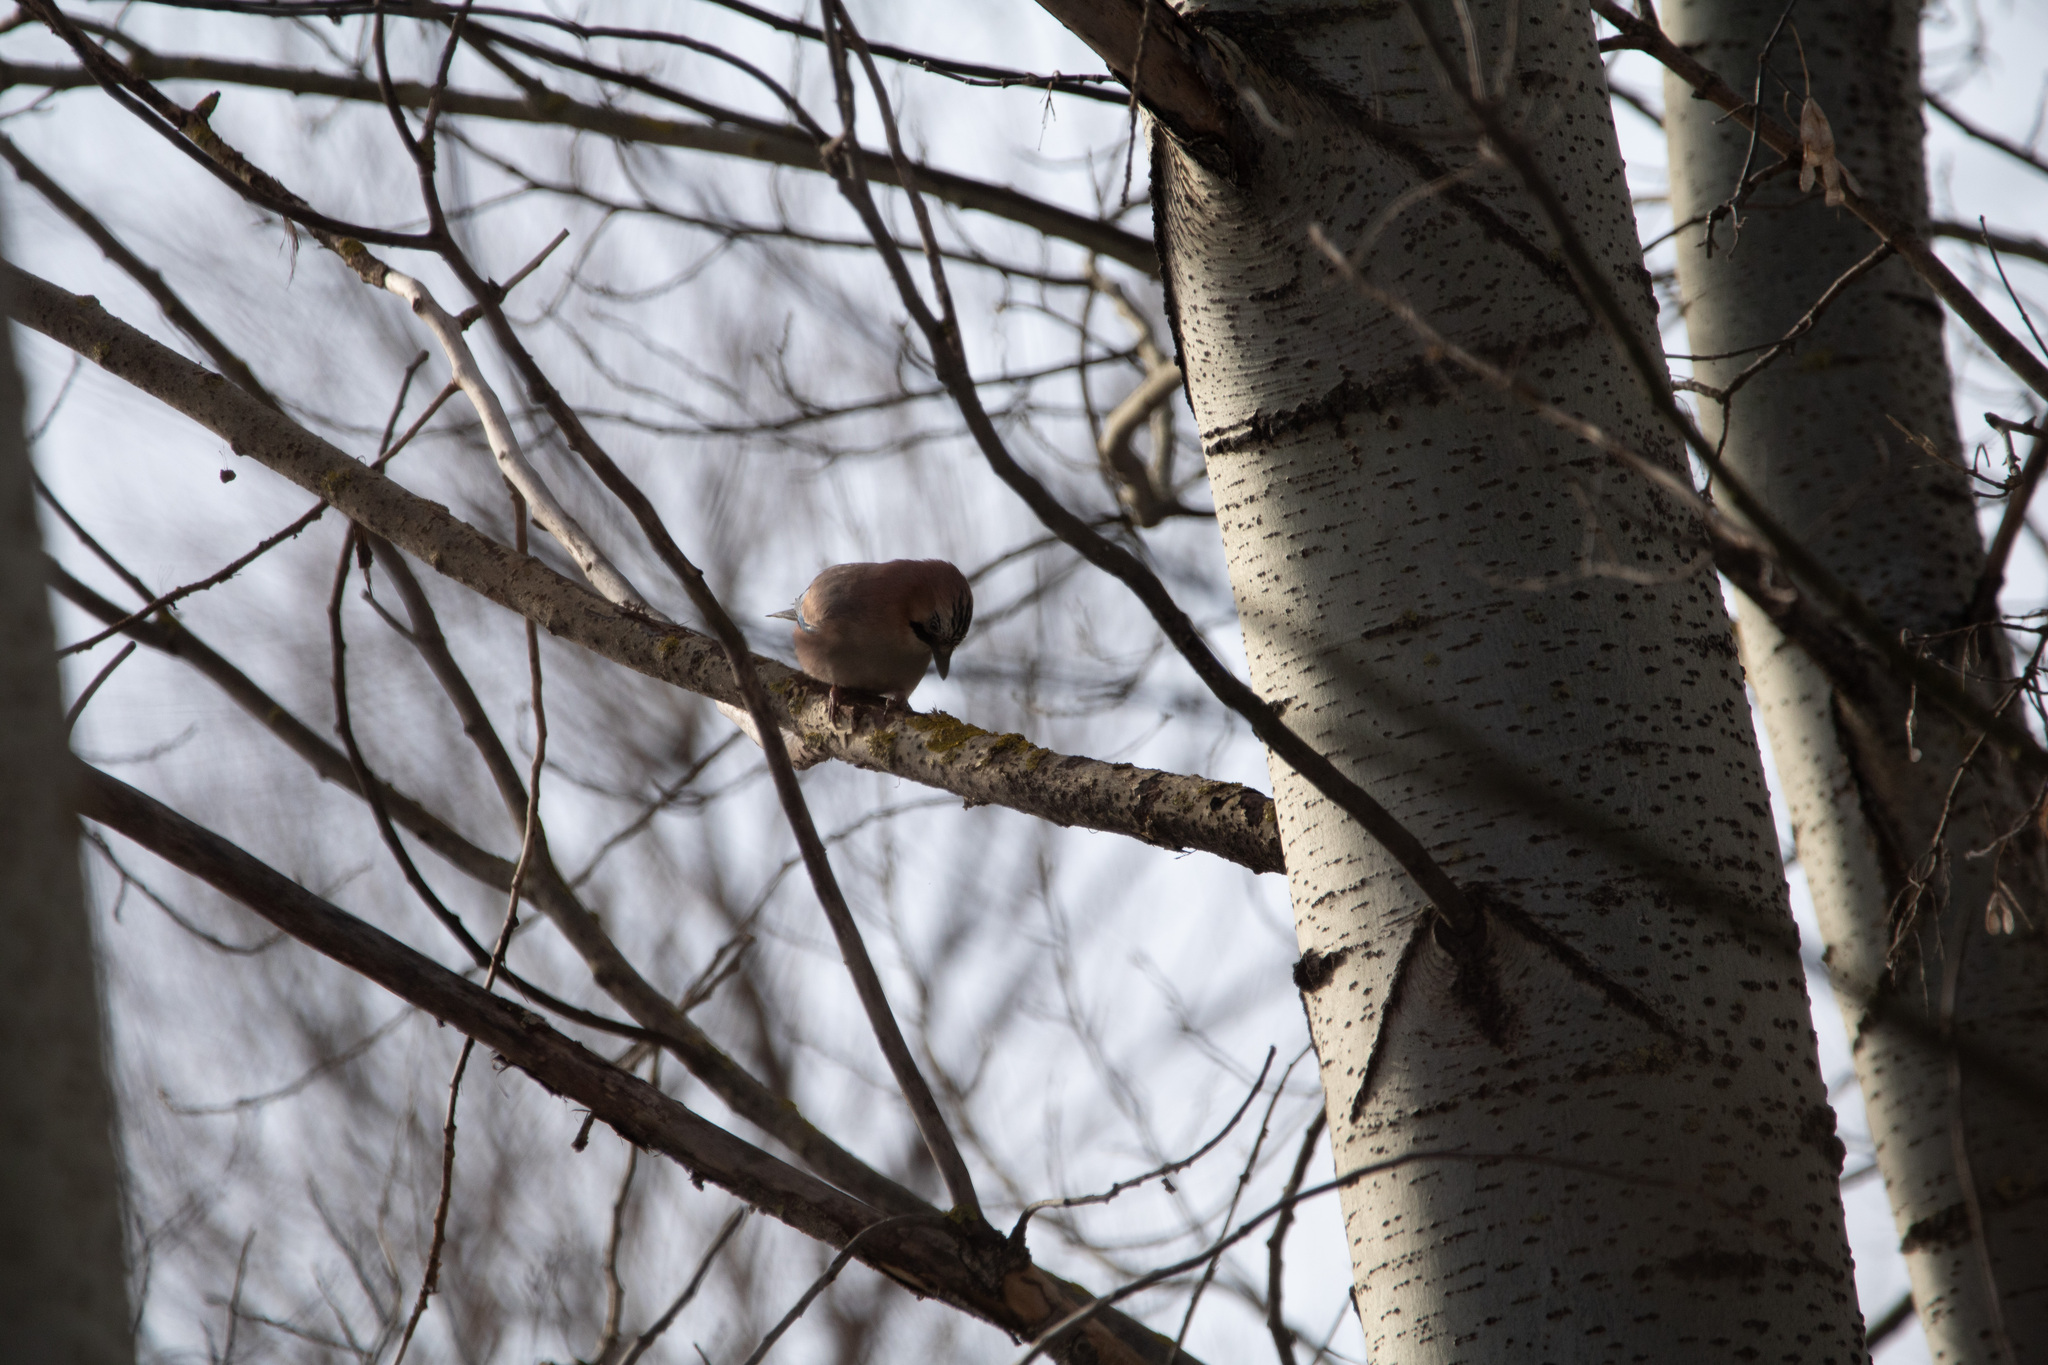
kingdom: Animalia
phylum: Chordata
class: Aves
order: Passeriformes
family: Corvidae
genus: Garrulus
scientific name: Garrulus glandarius
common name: Eurasian jay
